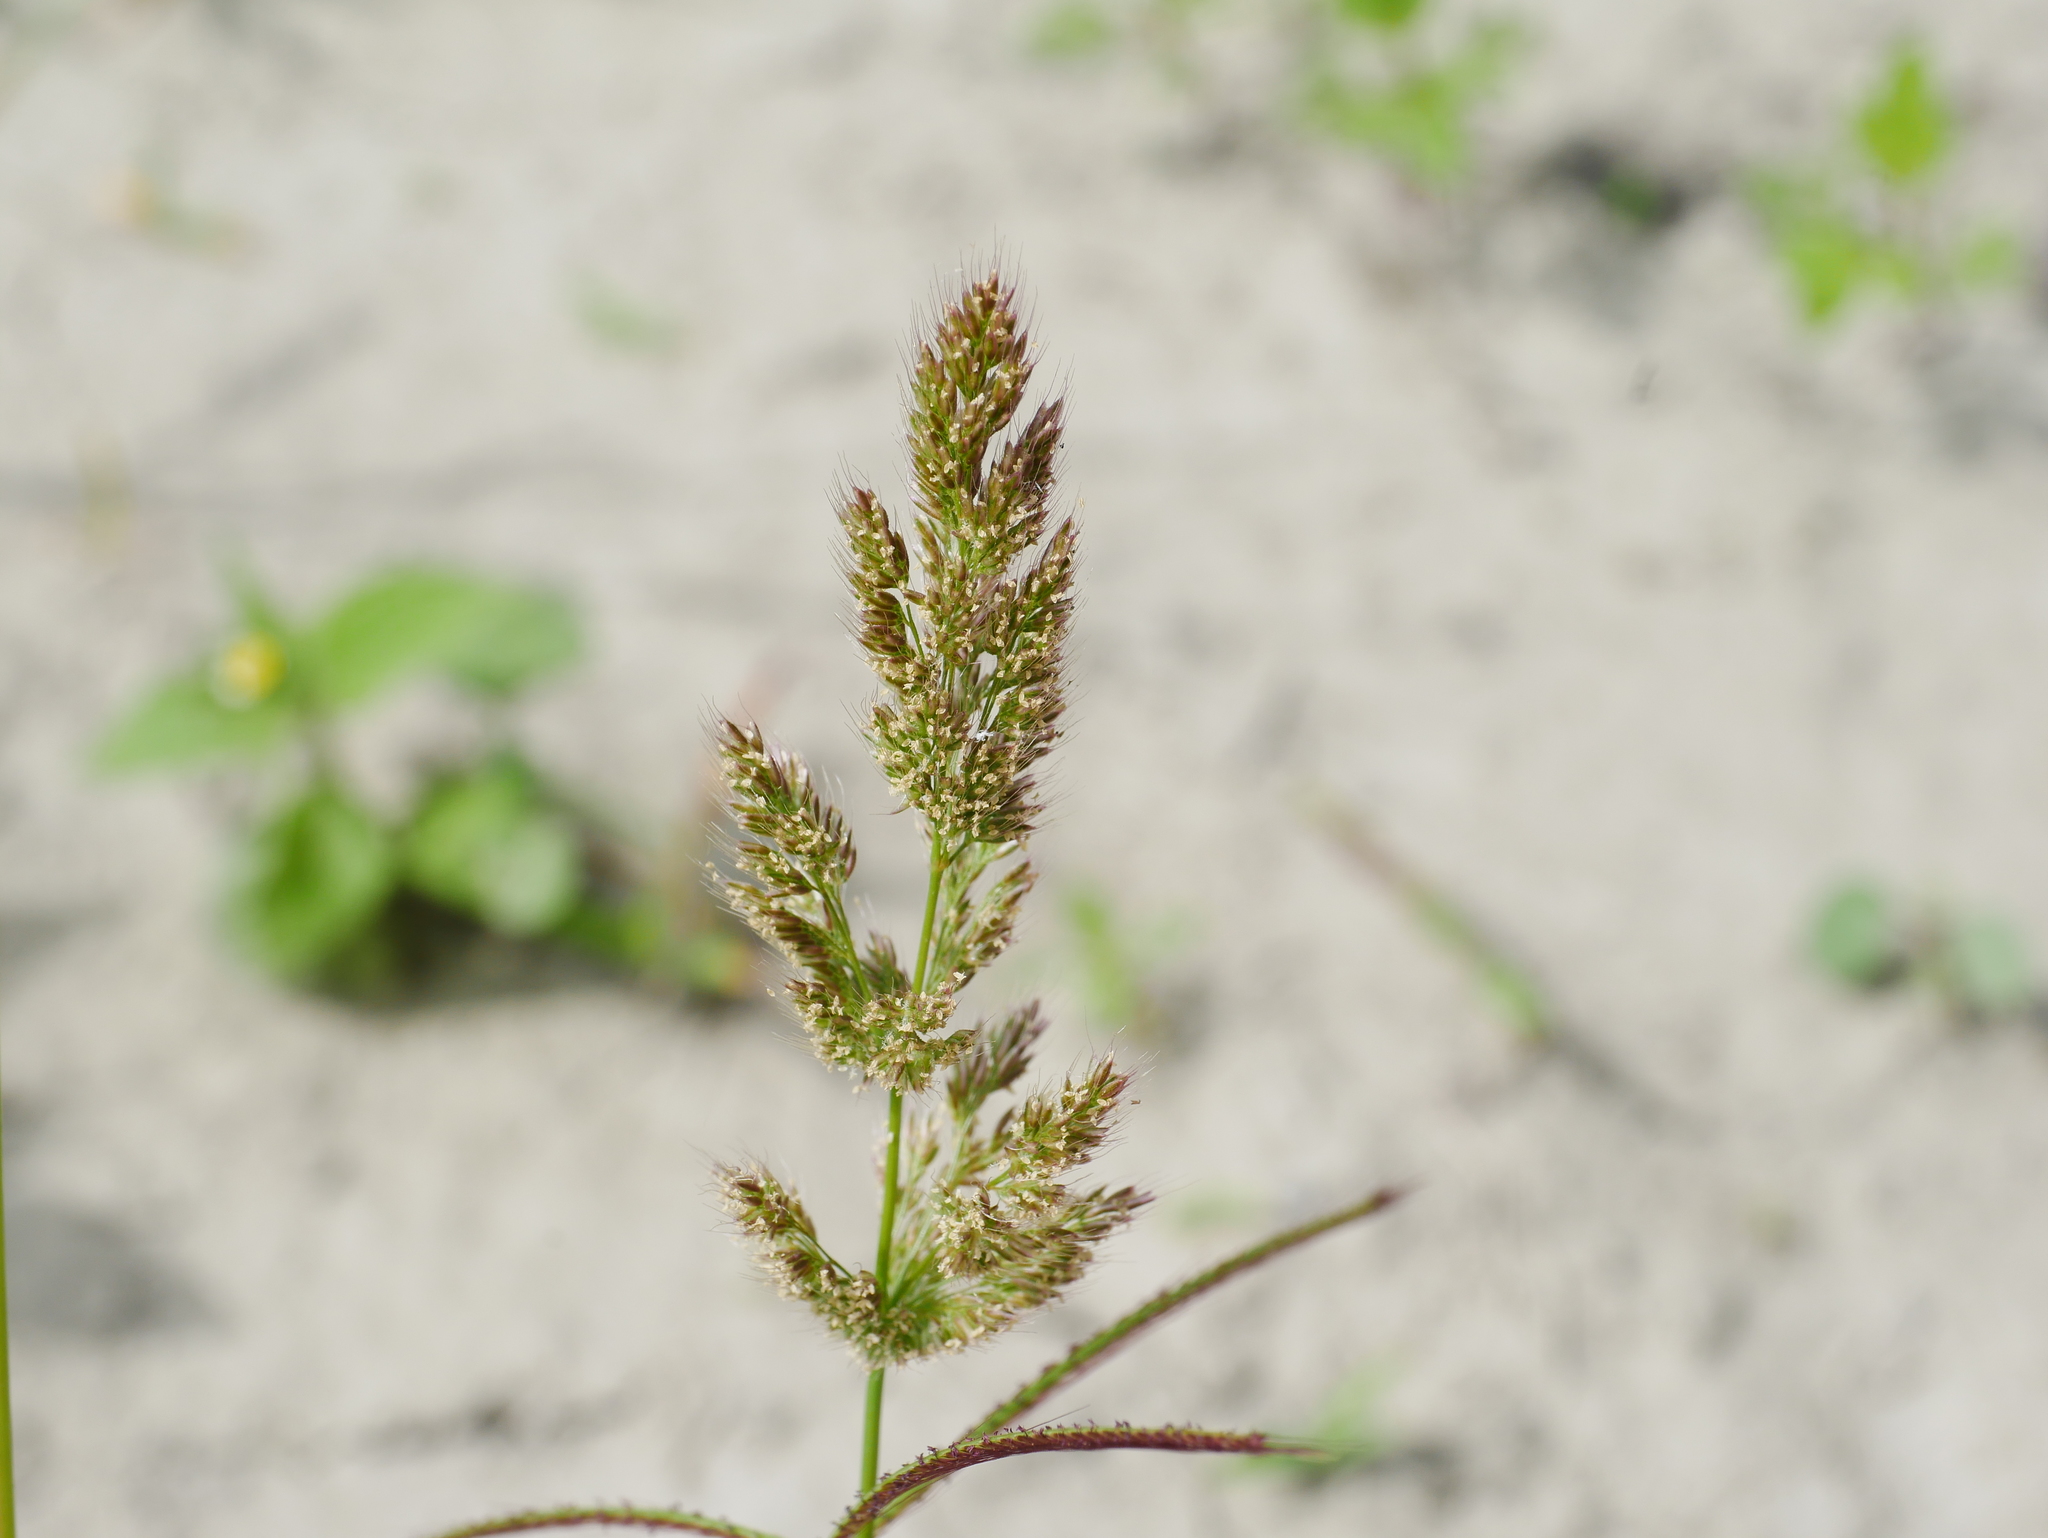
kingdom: Plantae
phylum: Tracheophyta
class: Liliopsida
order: Poales
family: Poaceae
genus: Polypogon
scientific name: Polypogon fugax
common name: Asia minor bluegrass
